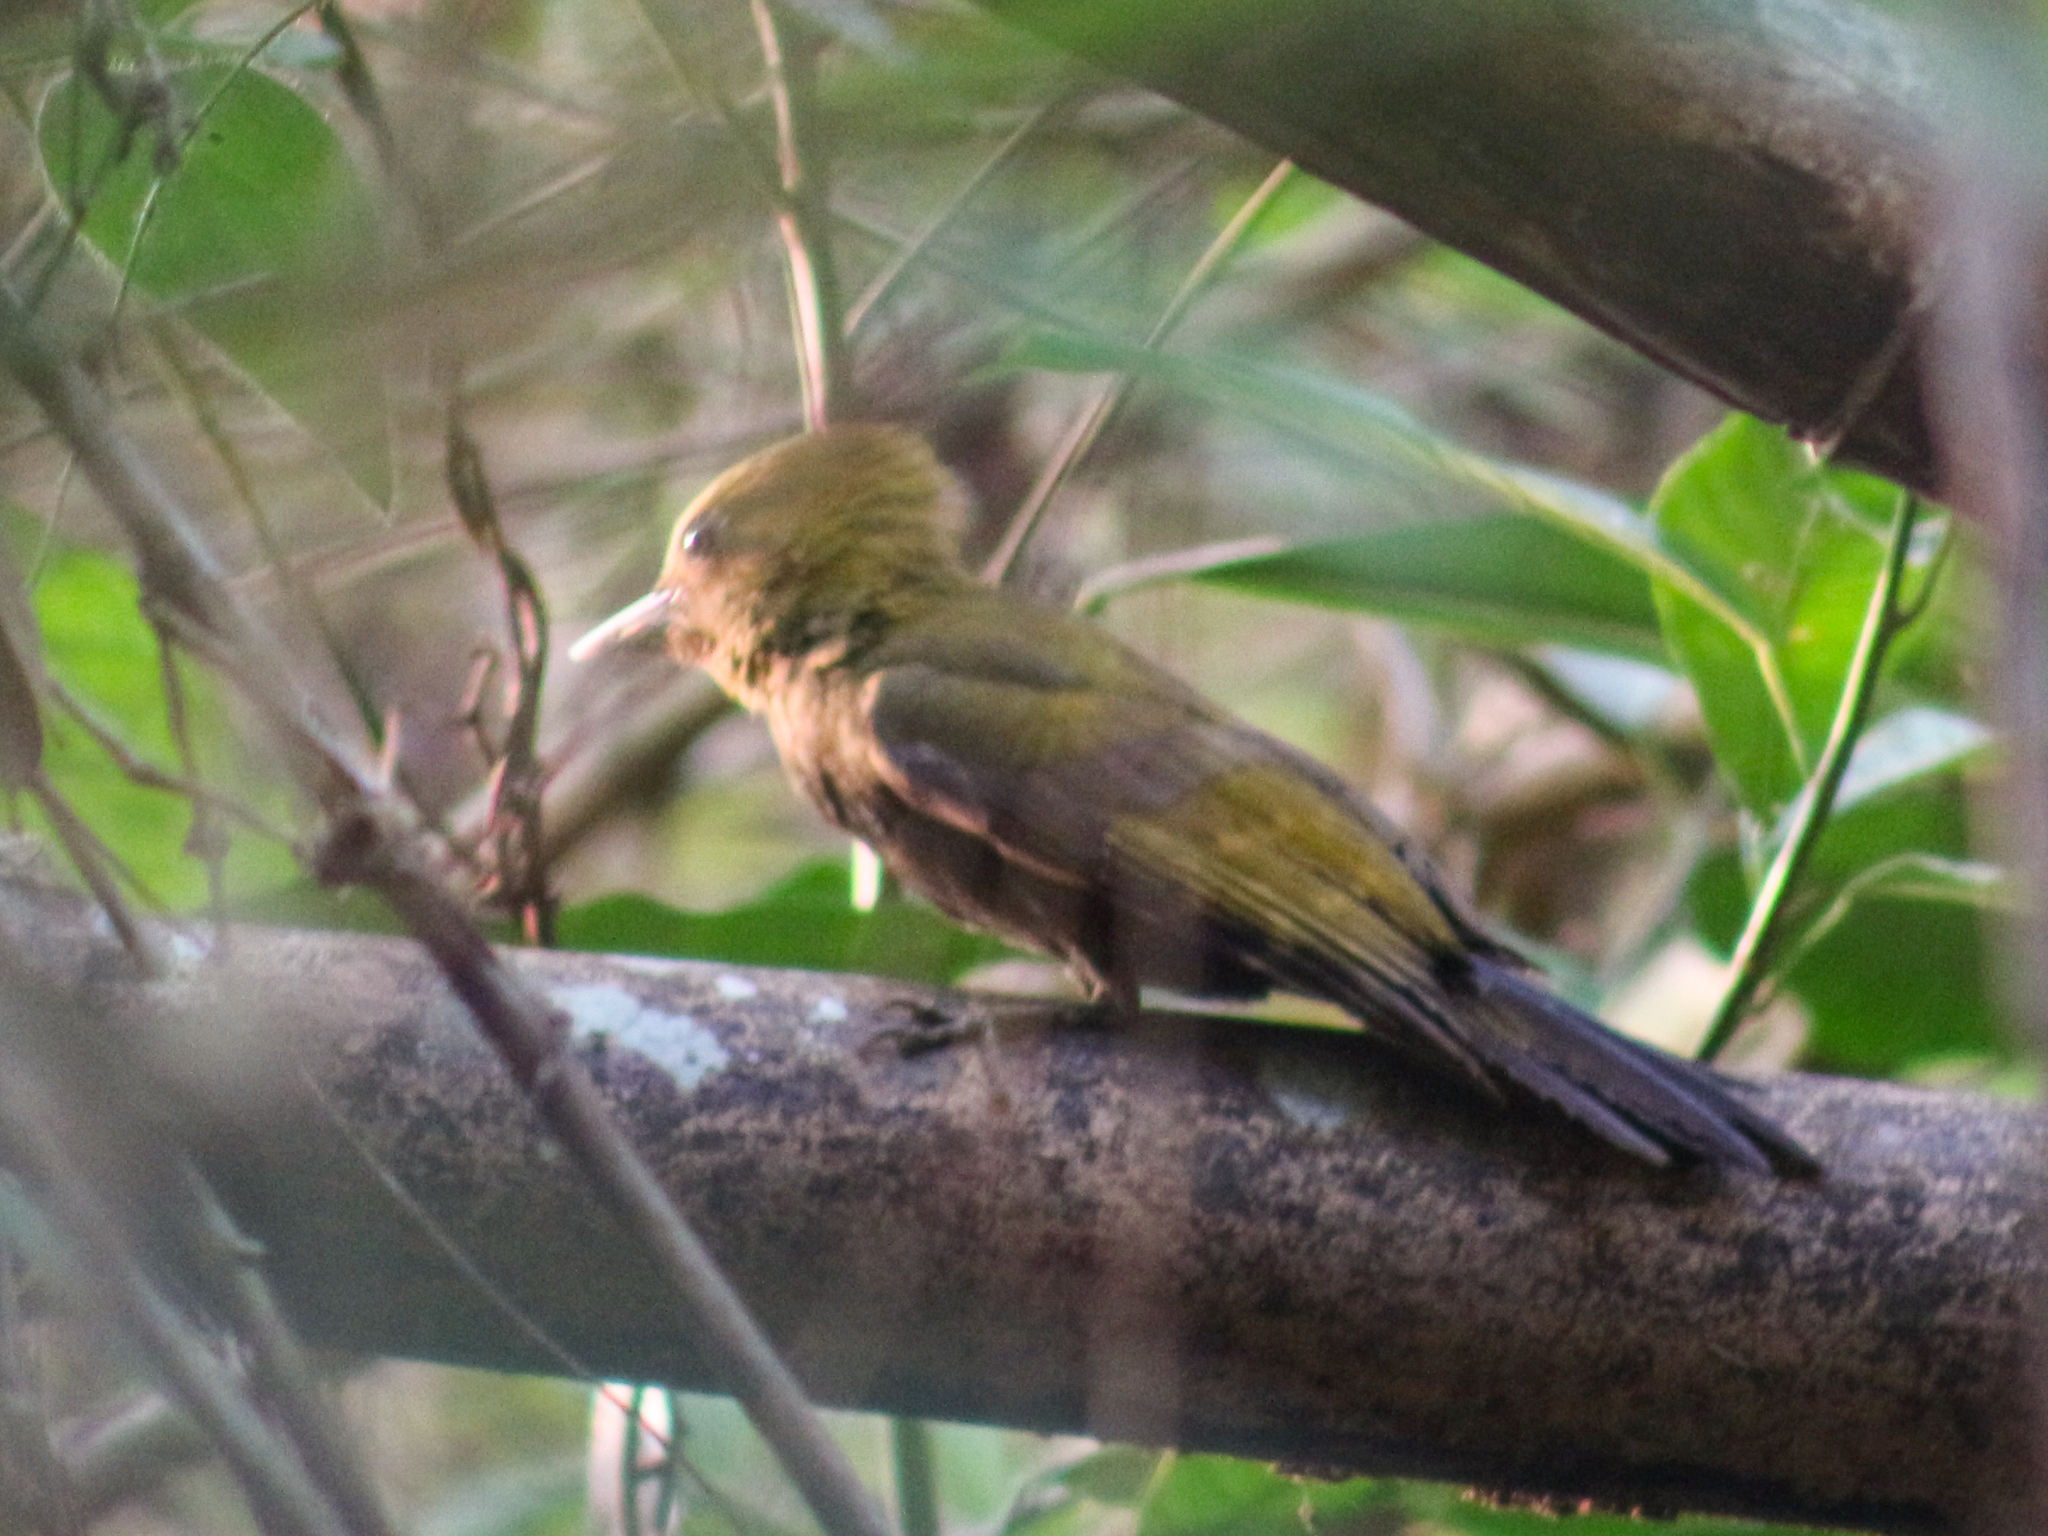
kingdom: Animalia
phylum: Chordata
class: Aves
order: Piciformes
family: Picidae
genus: Gecinulus
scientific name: Gecinulus viridis
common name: Bamboo woodpecker
